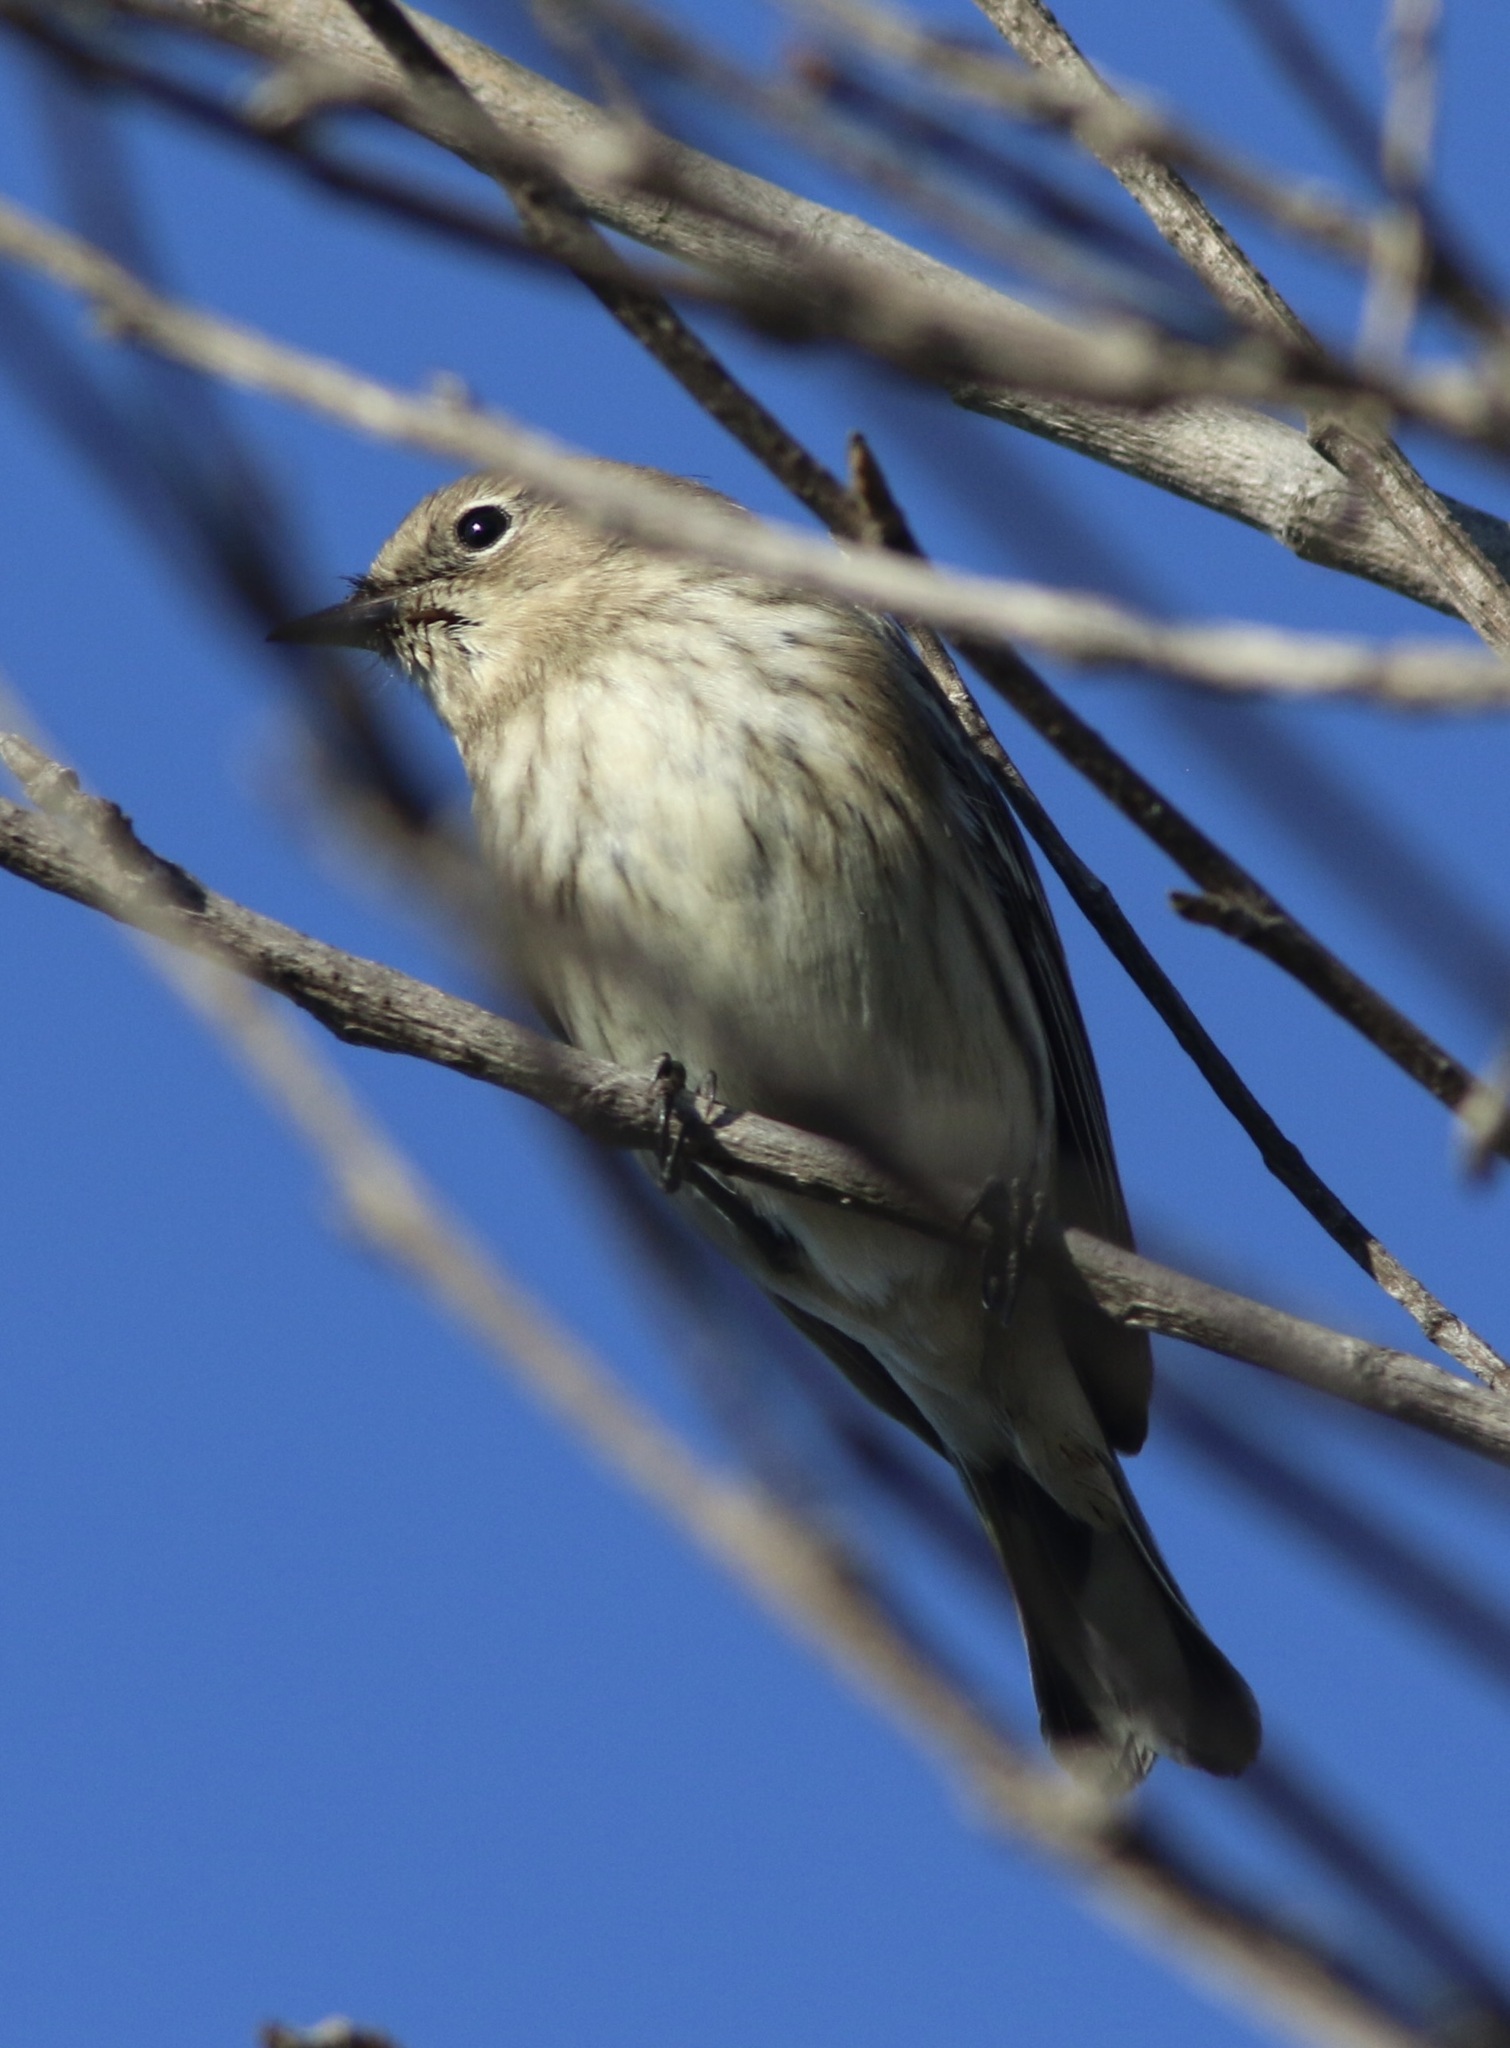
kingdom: Animalia
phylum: Chordata
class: Aves
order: Passeriformes
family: Parulidae
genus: Setophaga
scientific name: Setophaga coronata
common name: Myrtle warbler
